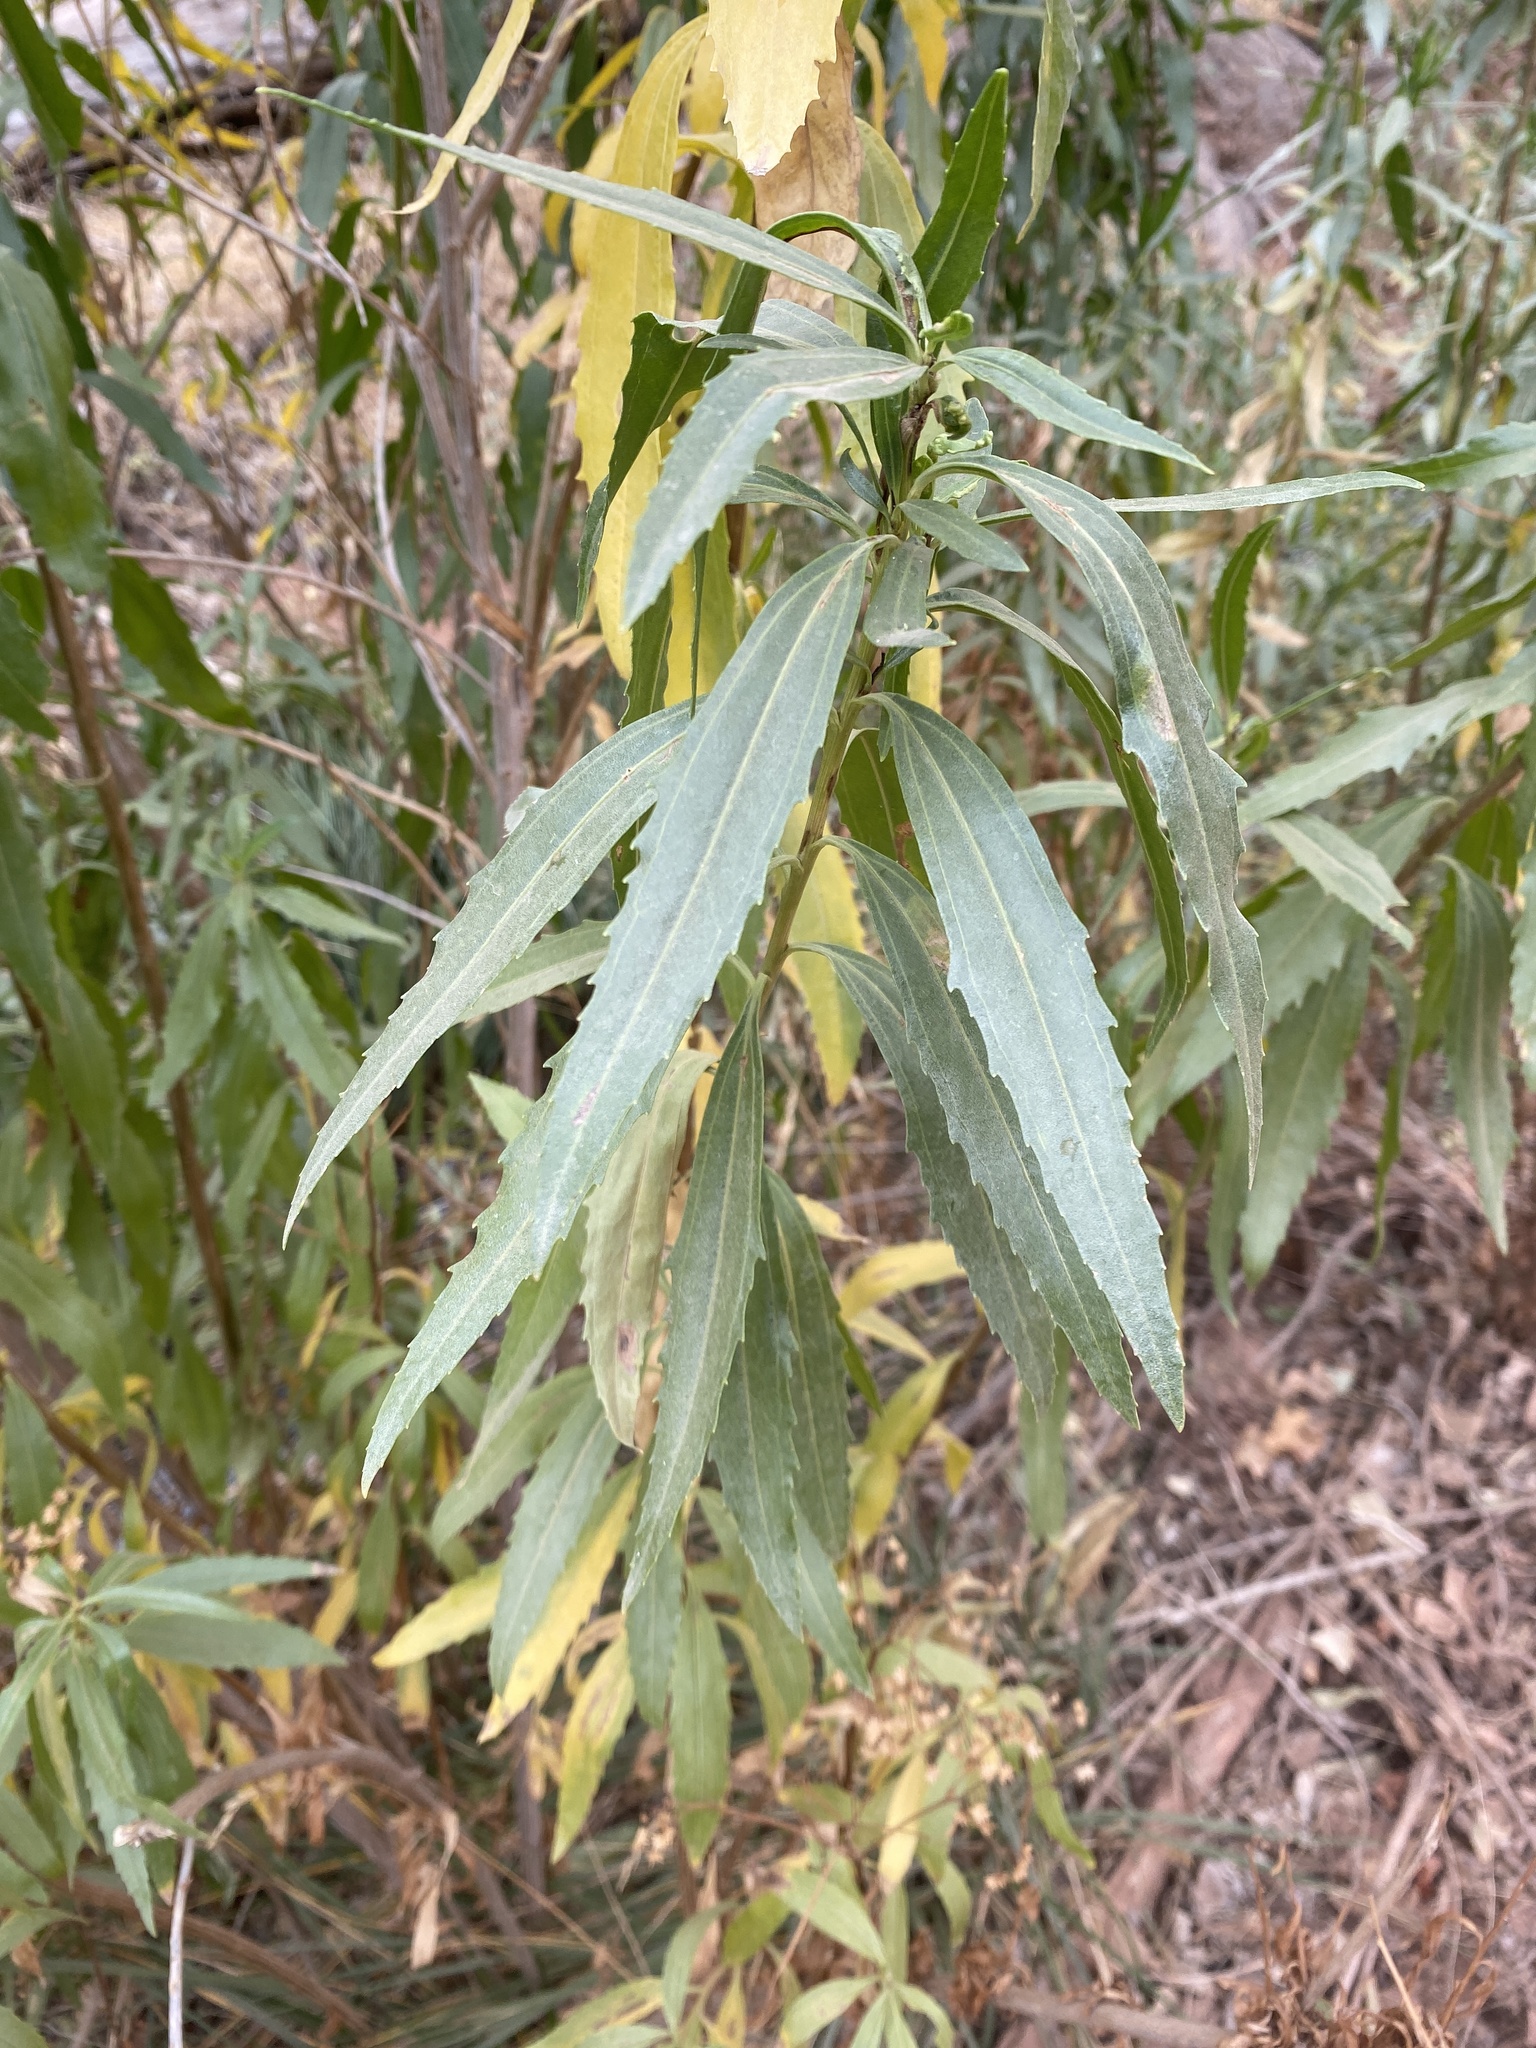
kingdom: Plantae
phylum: Tracheophyta
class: Magnoliopsida
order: Asterales
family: Asteraceae
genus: Baccharis
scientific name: Baccharis salicifolia
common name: Sticky baccharis
